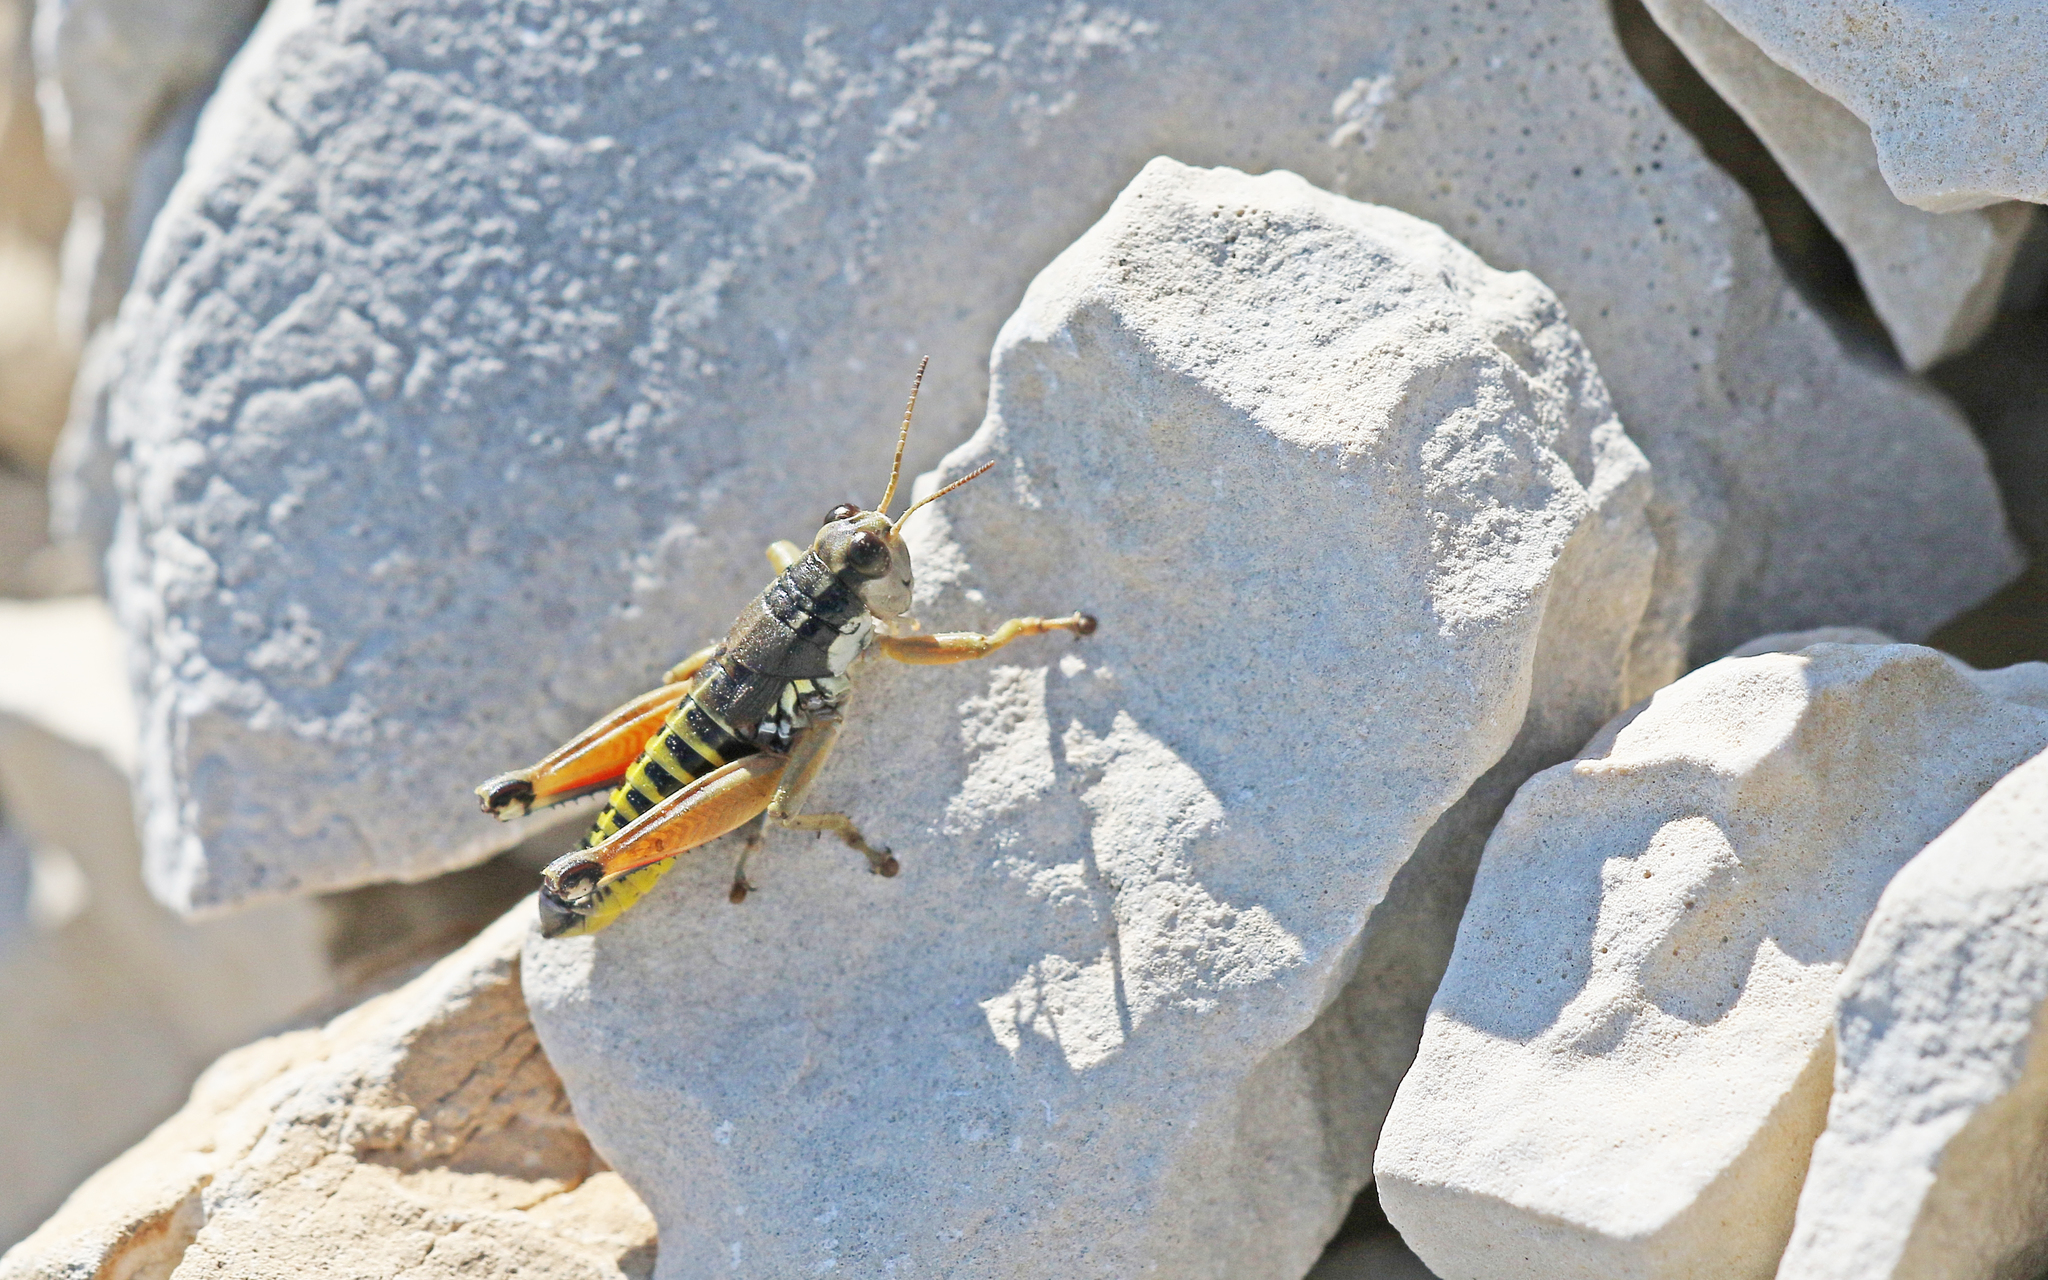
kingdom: Animalia
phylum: Arthropoda
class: Insecta
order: Orthoptera
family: Acrididae
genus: Podisma
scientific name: Podisma amedegnatoae
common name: Ventoux mountain grasshopper
